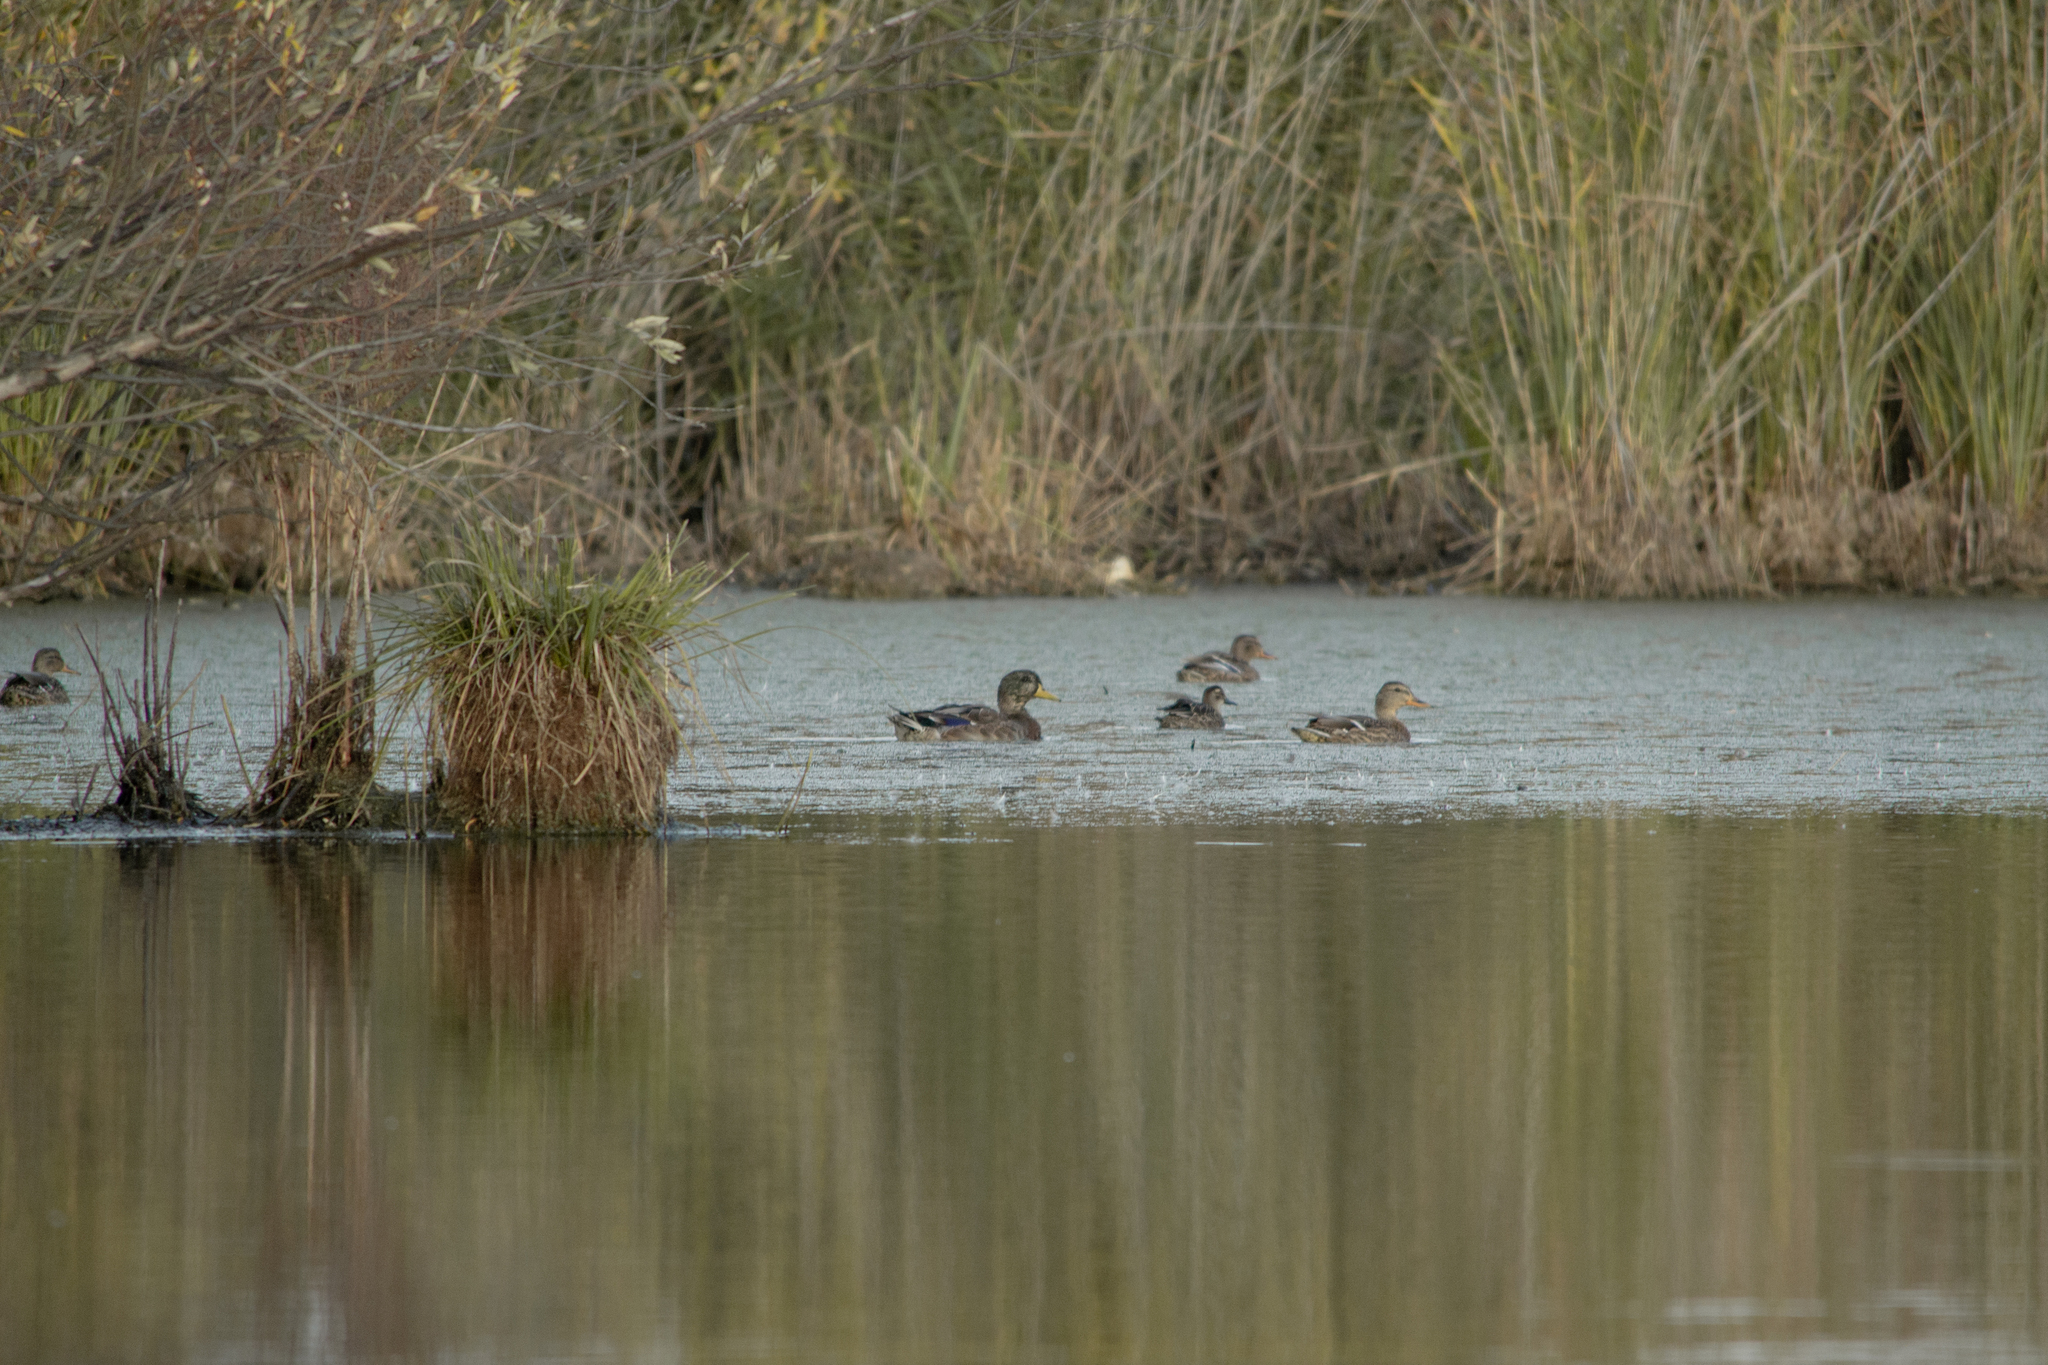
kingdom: Animalia
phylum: Chordata
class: Aves
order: Anseriformes
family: Anatidae
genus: Anas
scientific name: Anas platyrhynchos
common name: Mallard
